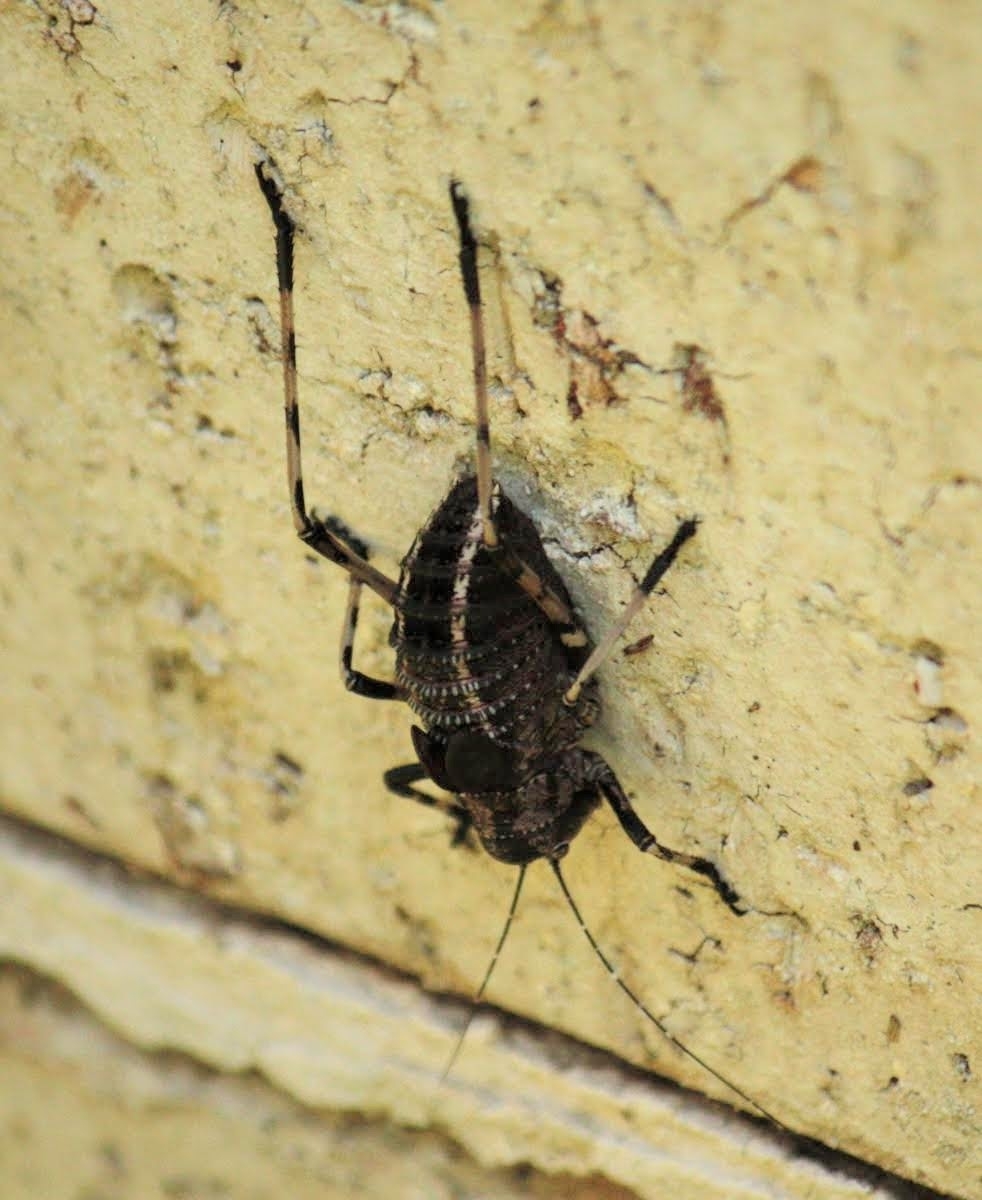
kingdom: Animalia
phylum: Arthropoda
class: Insecta
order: Orthoptera
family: Tettigoniidae
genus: Acripeza
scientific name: Acripeza reticulata
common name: Mountain katydid
